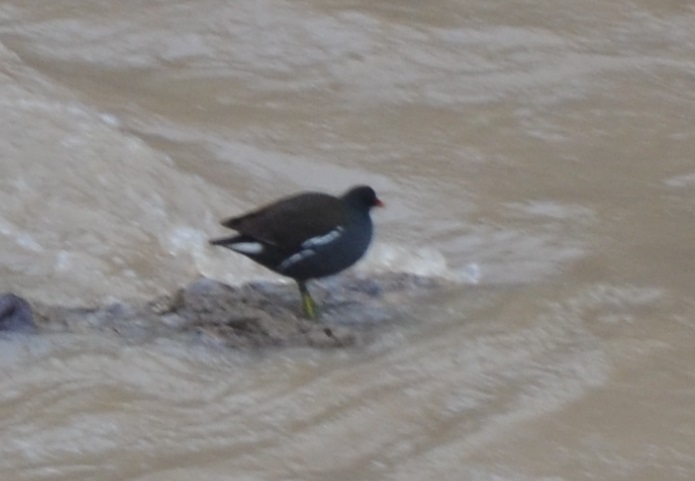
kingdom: Animalia
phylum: Chordata
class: Aves
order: Gruiformes
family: Rallidae
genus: Gallinula
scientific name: Gallinula chloropus
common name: Common moorhen
